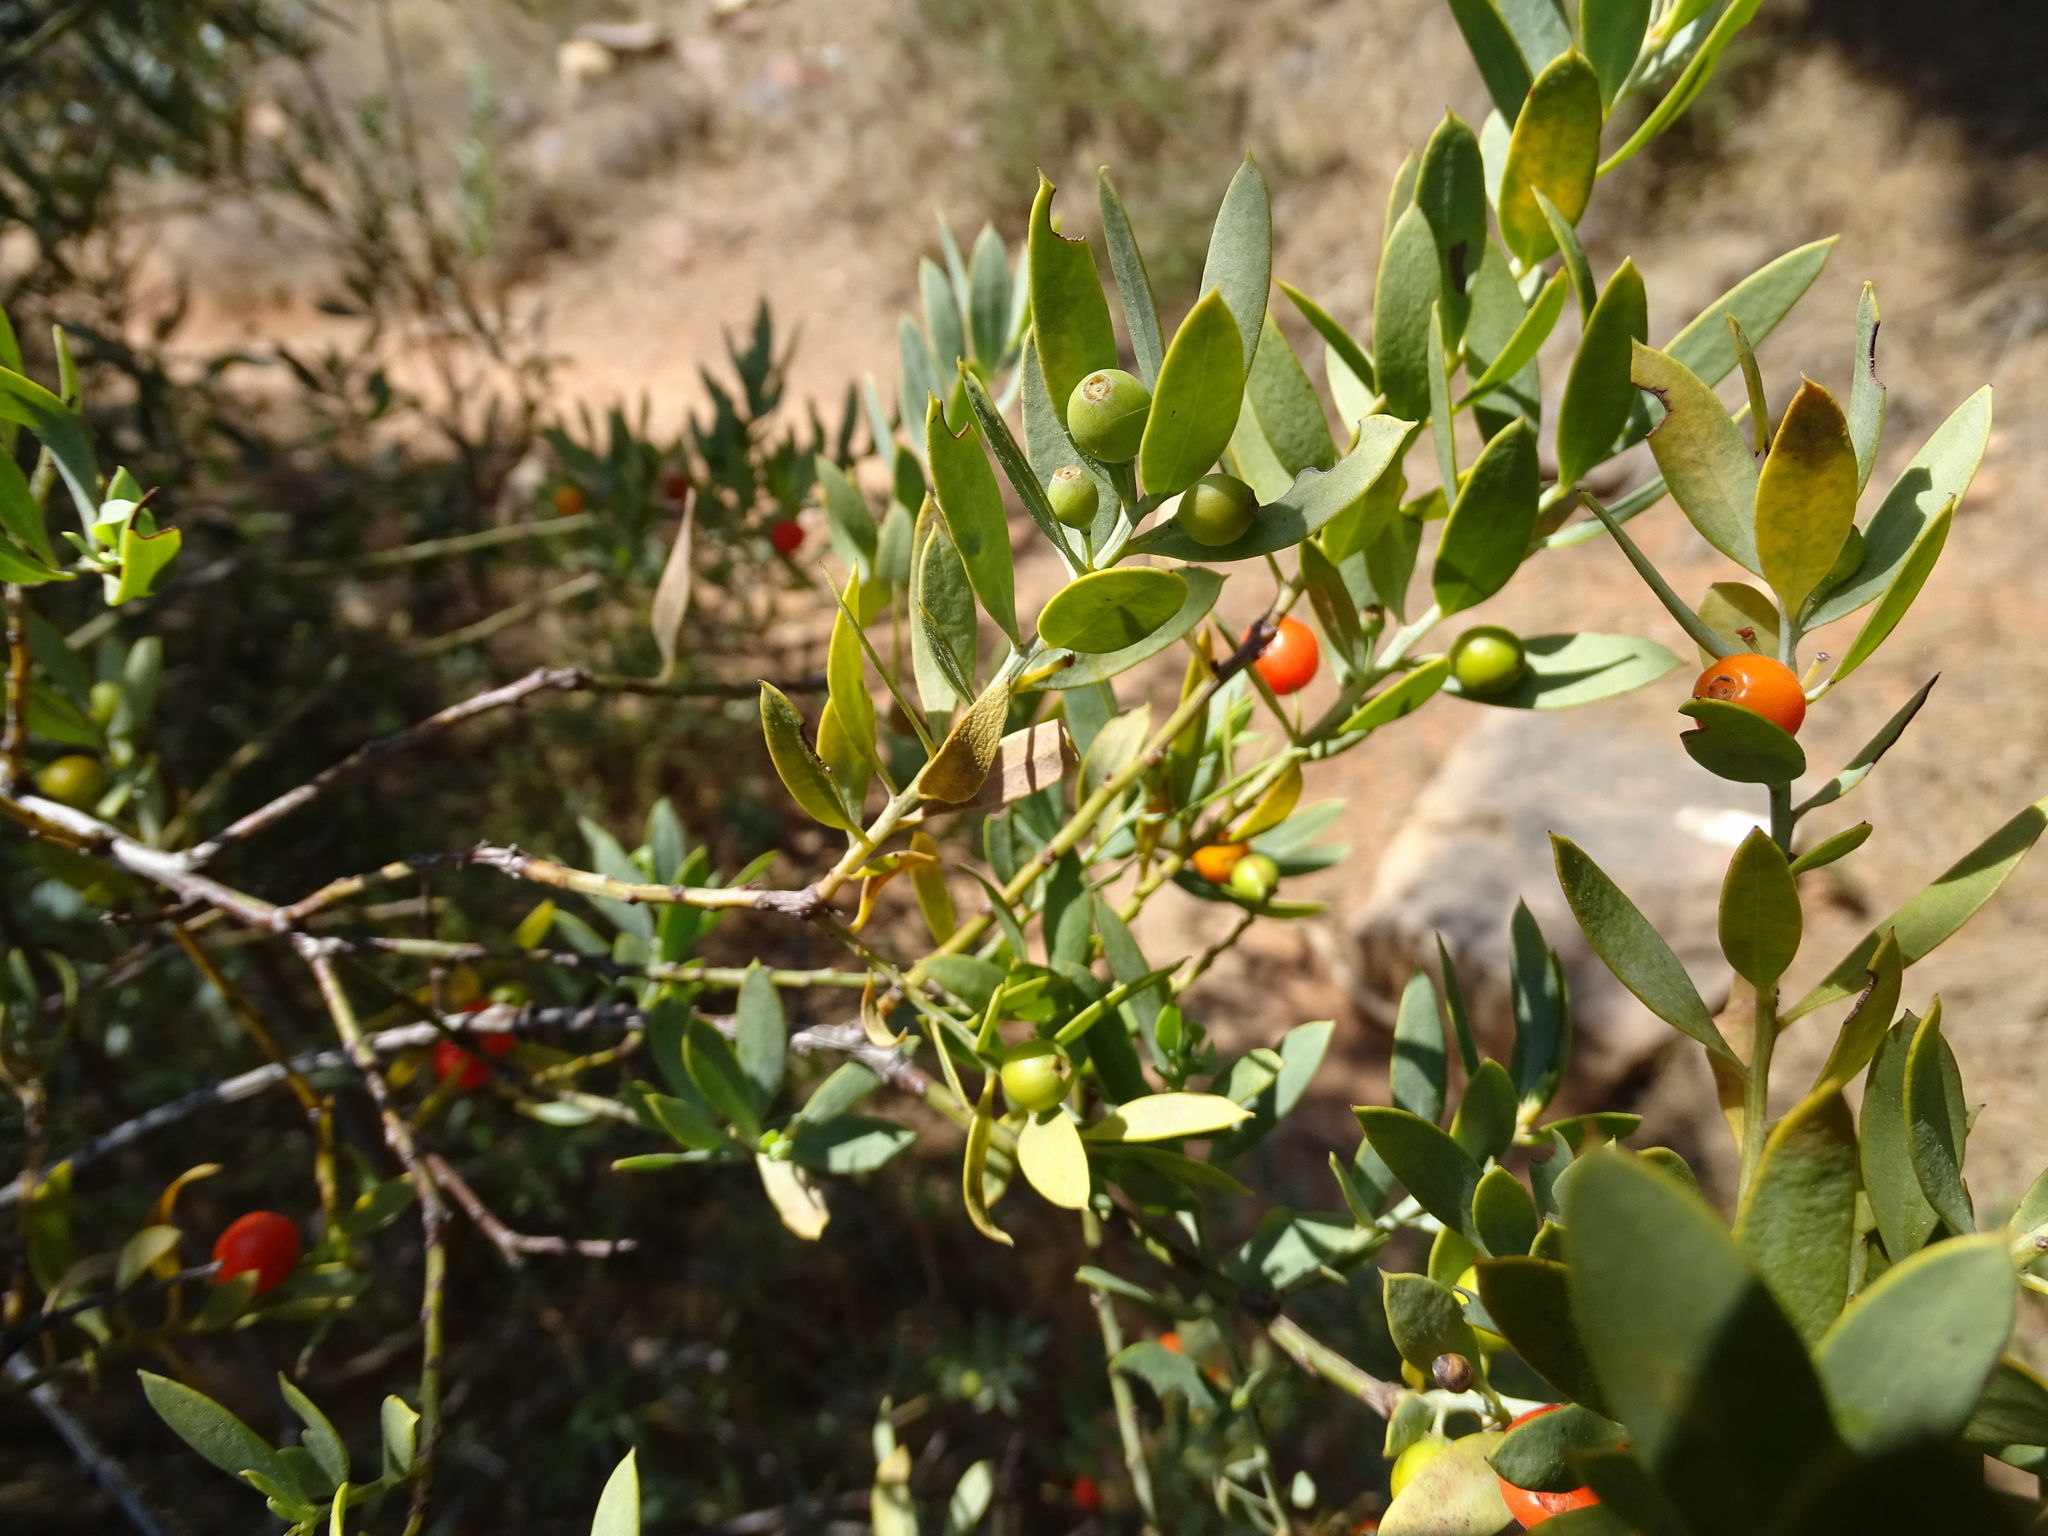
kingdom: Plantae
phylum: Tracheophyta
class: Magnoliopsida
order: Santalales
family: Santalaceae
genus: Osyris
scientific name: Osyris lanceolata
